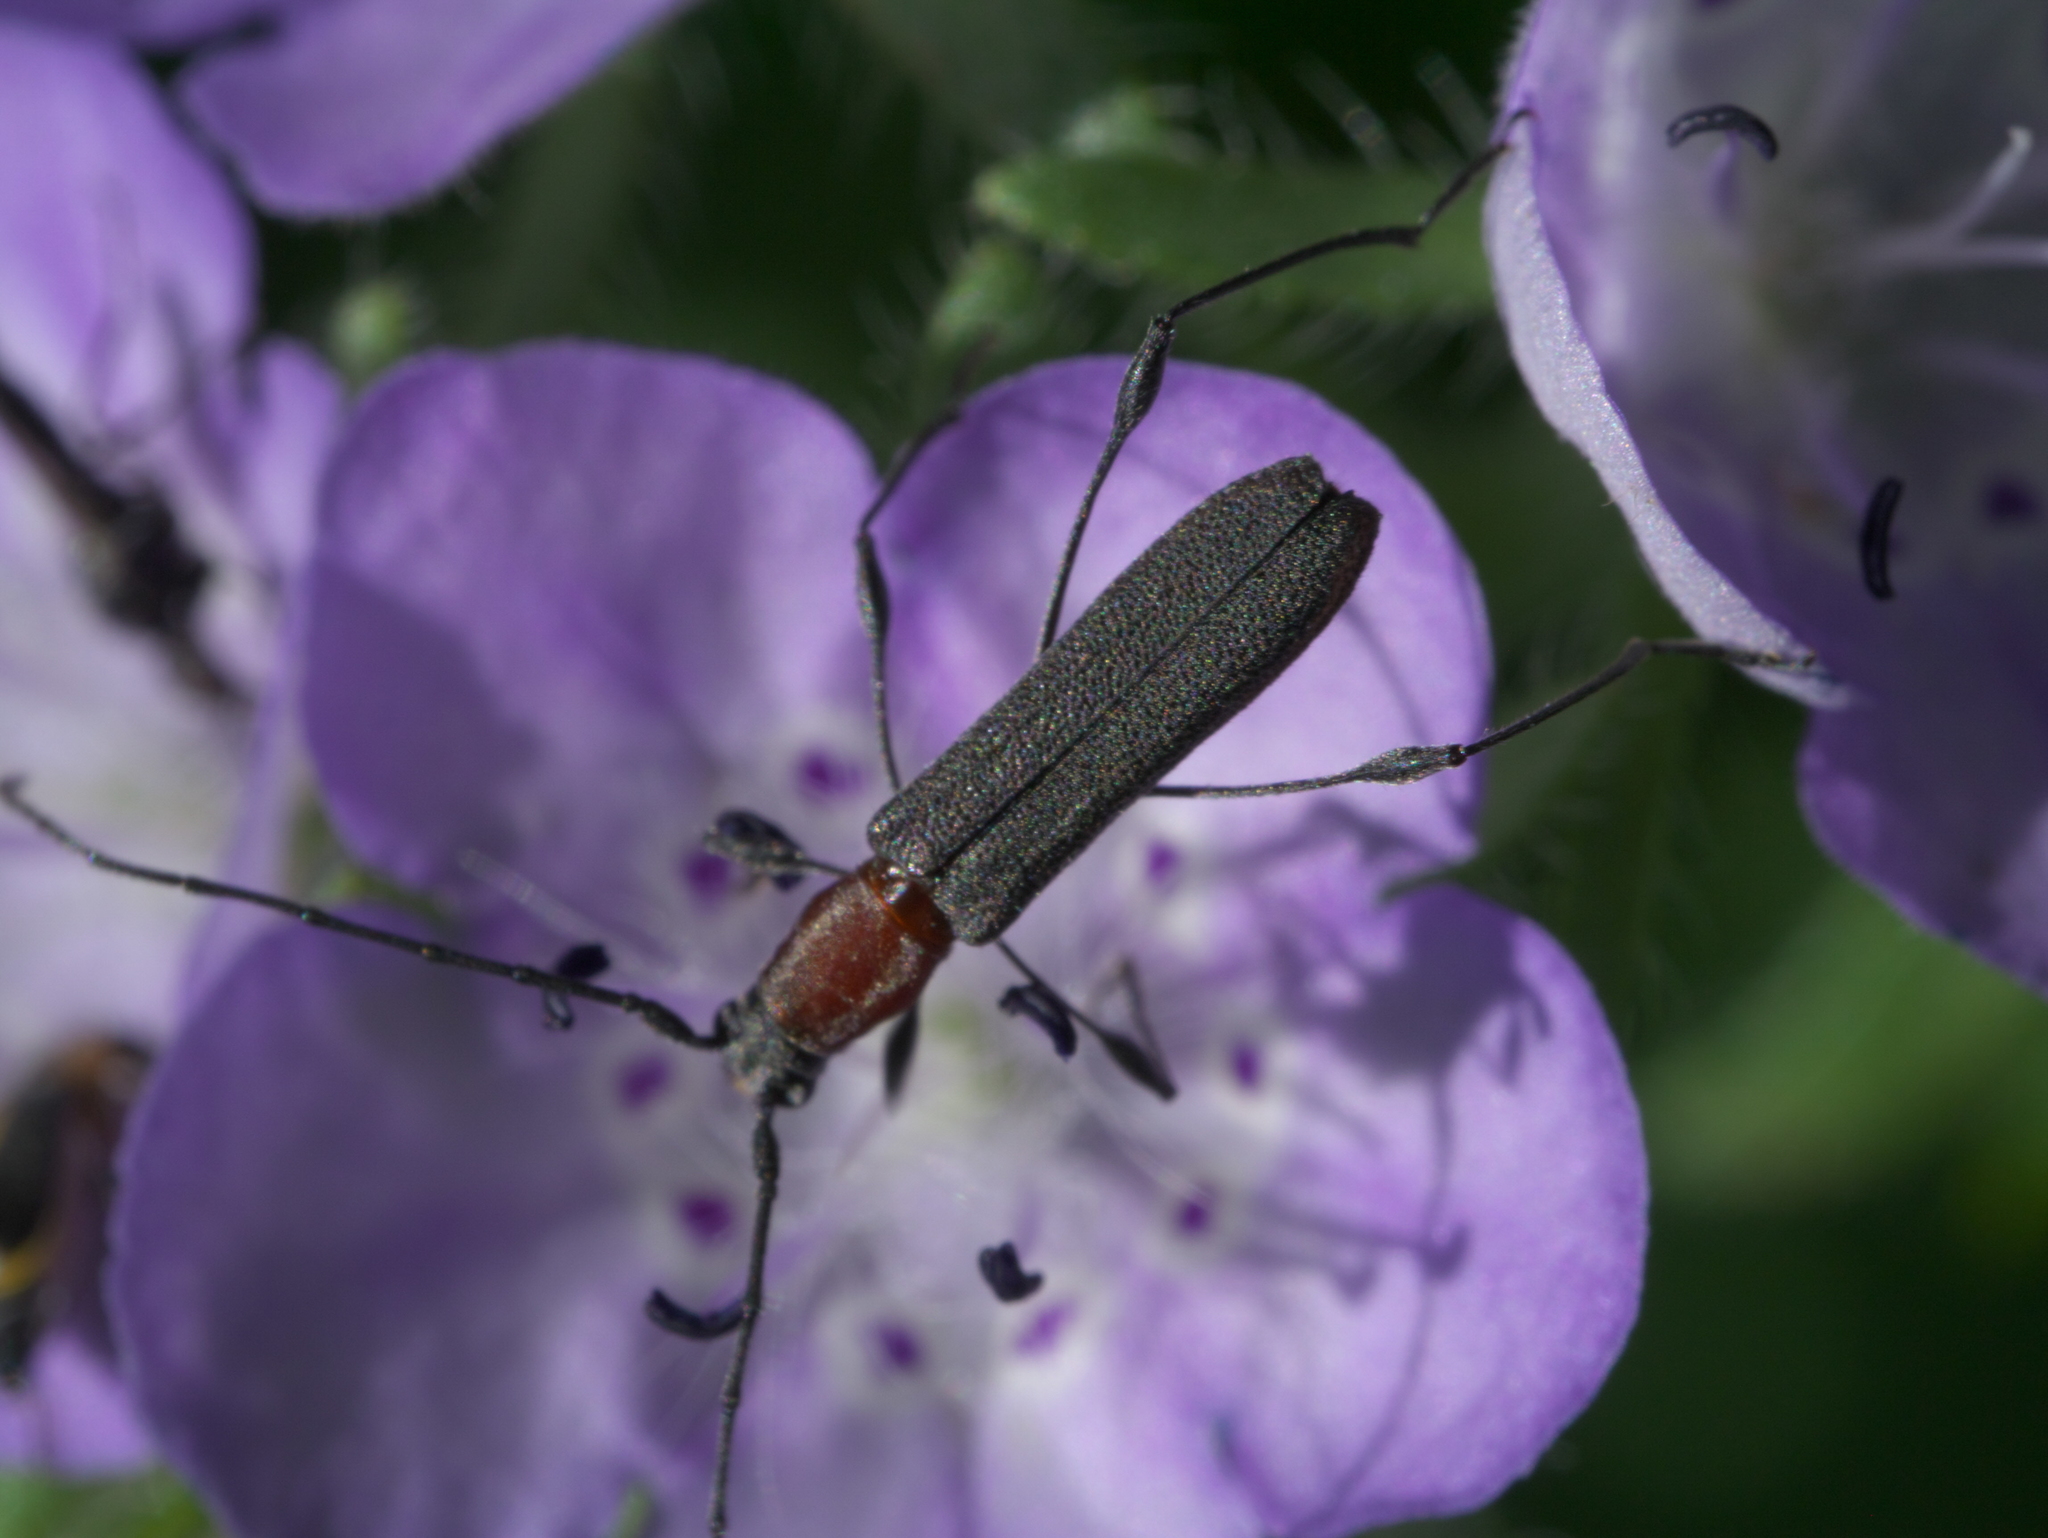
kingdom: Animalia
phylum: Arthropoda
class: Insecta
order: Coleoptera
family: Cerambycidae
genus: Rhopalophora
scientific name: Rhopalophora longipes
